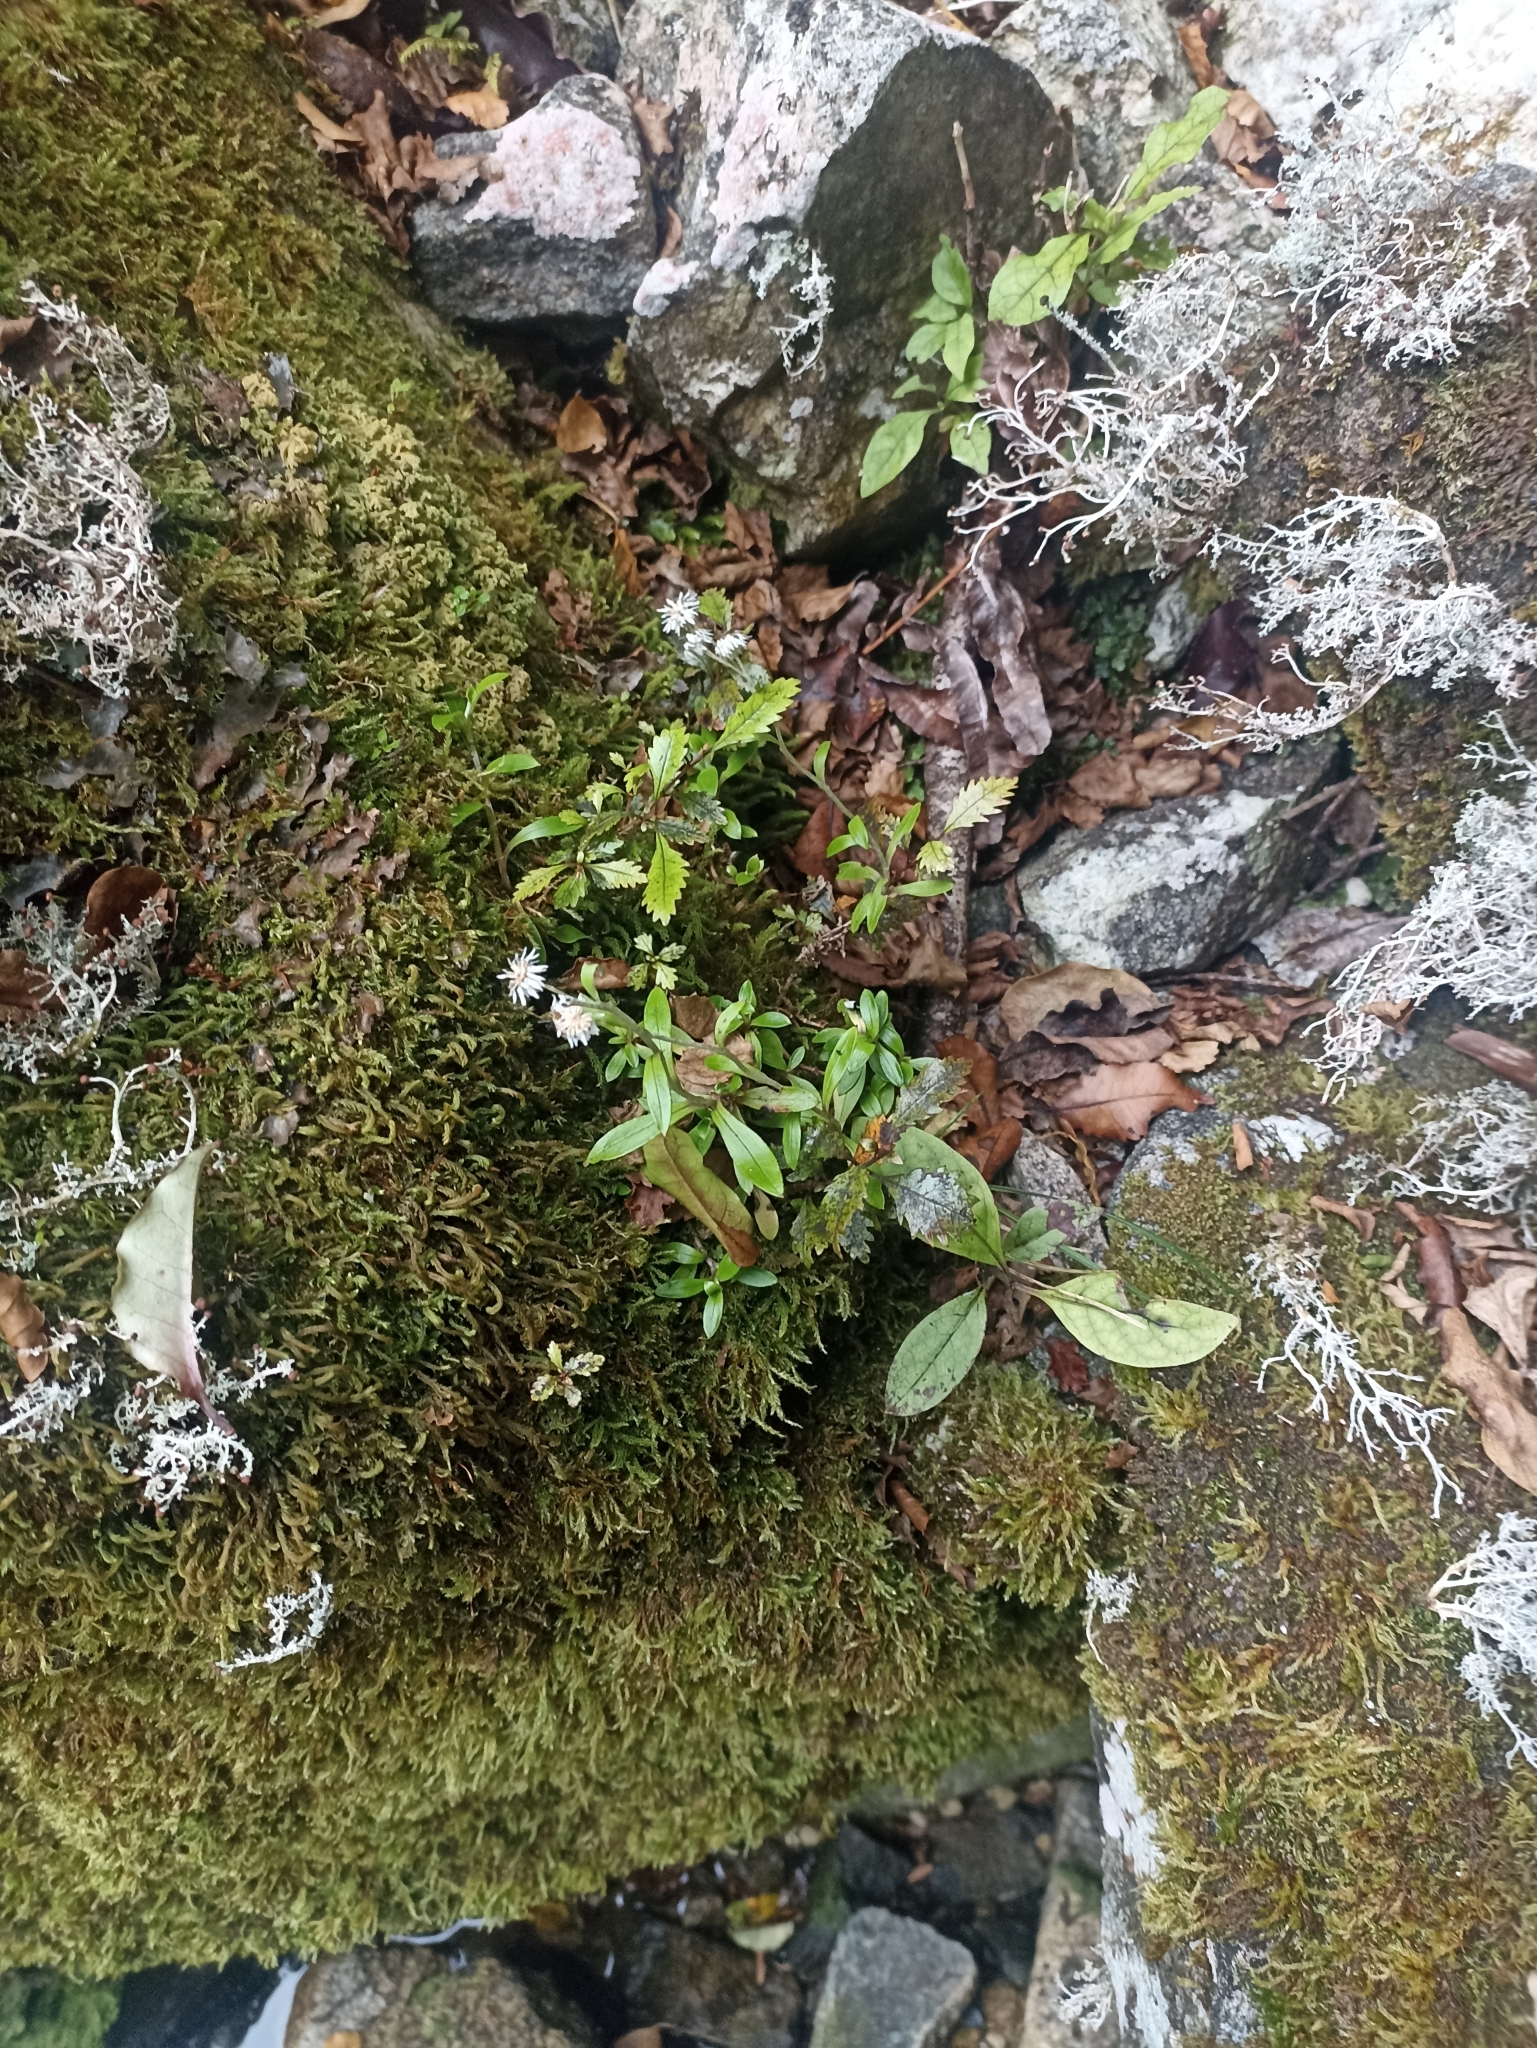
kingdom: Plantae
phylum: Tracheophyta
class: Magnoliopsida
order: Asterales
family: Asteraceae
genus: Anaphalioides
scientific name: Anaphalioides trinervis
